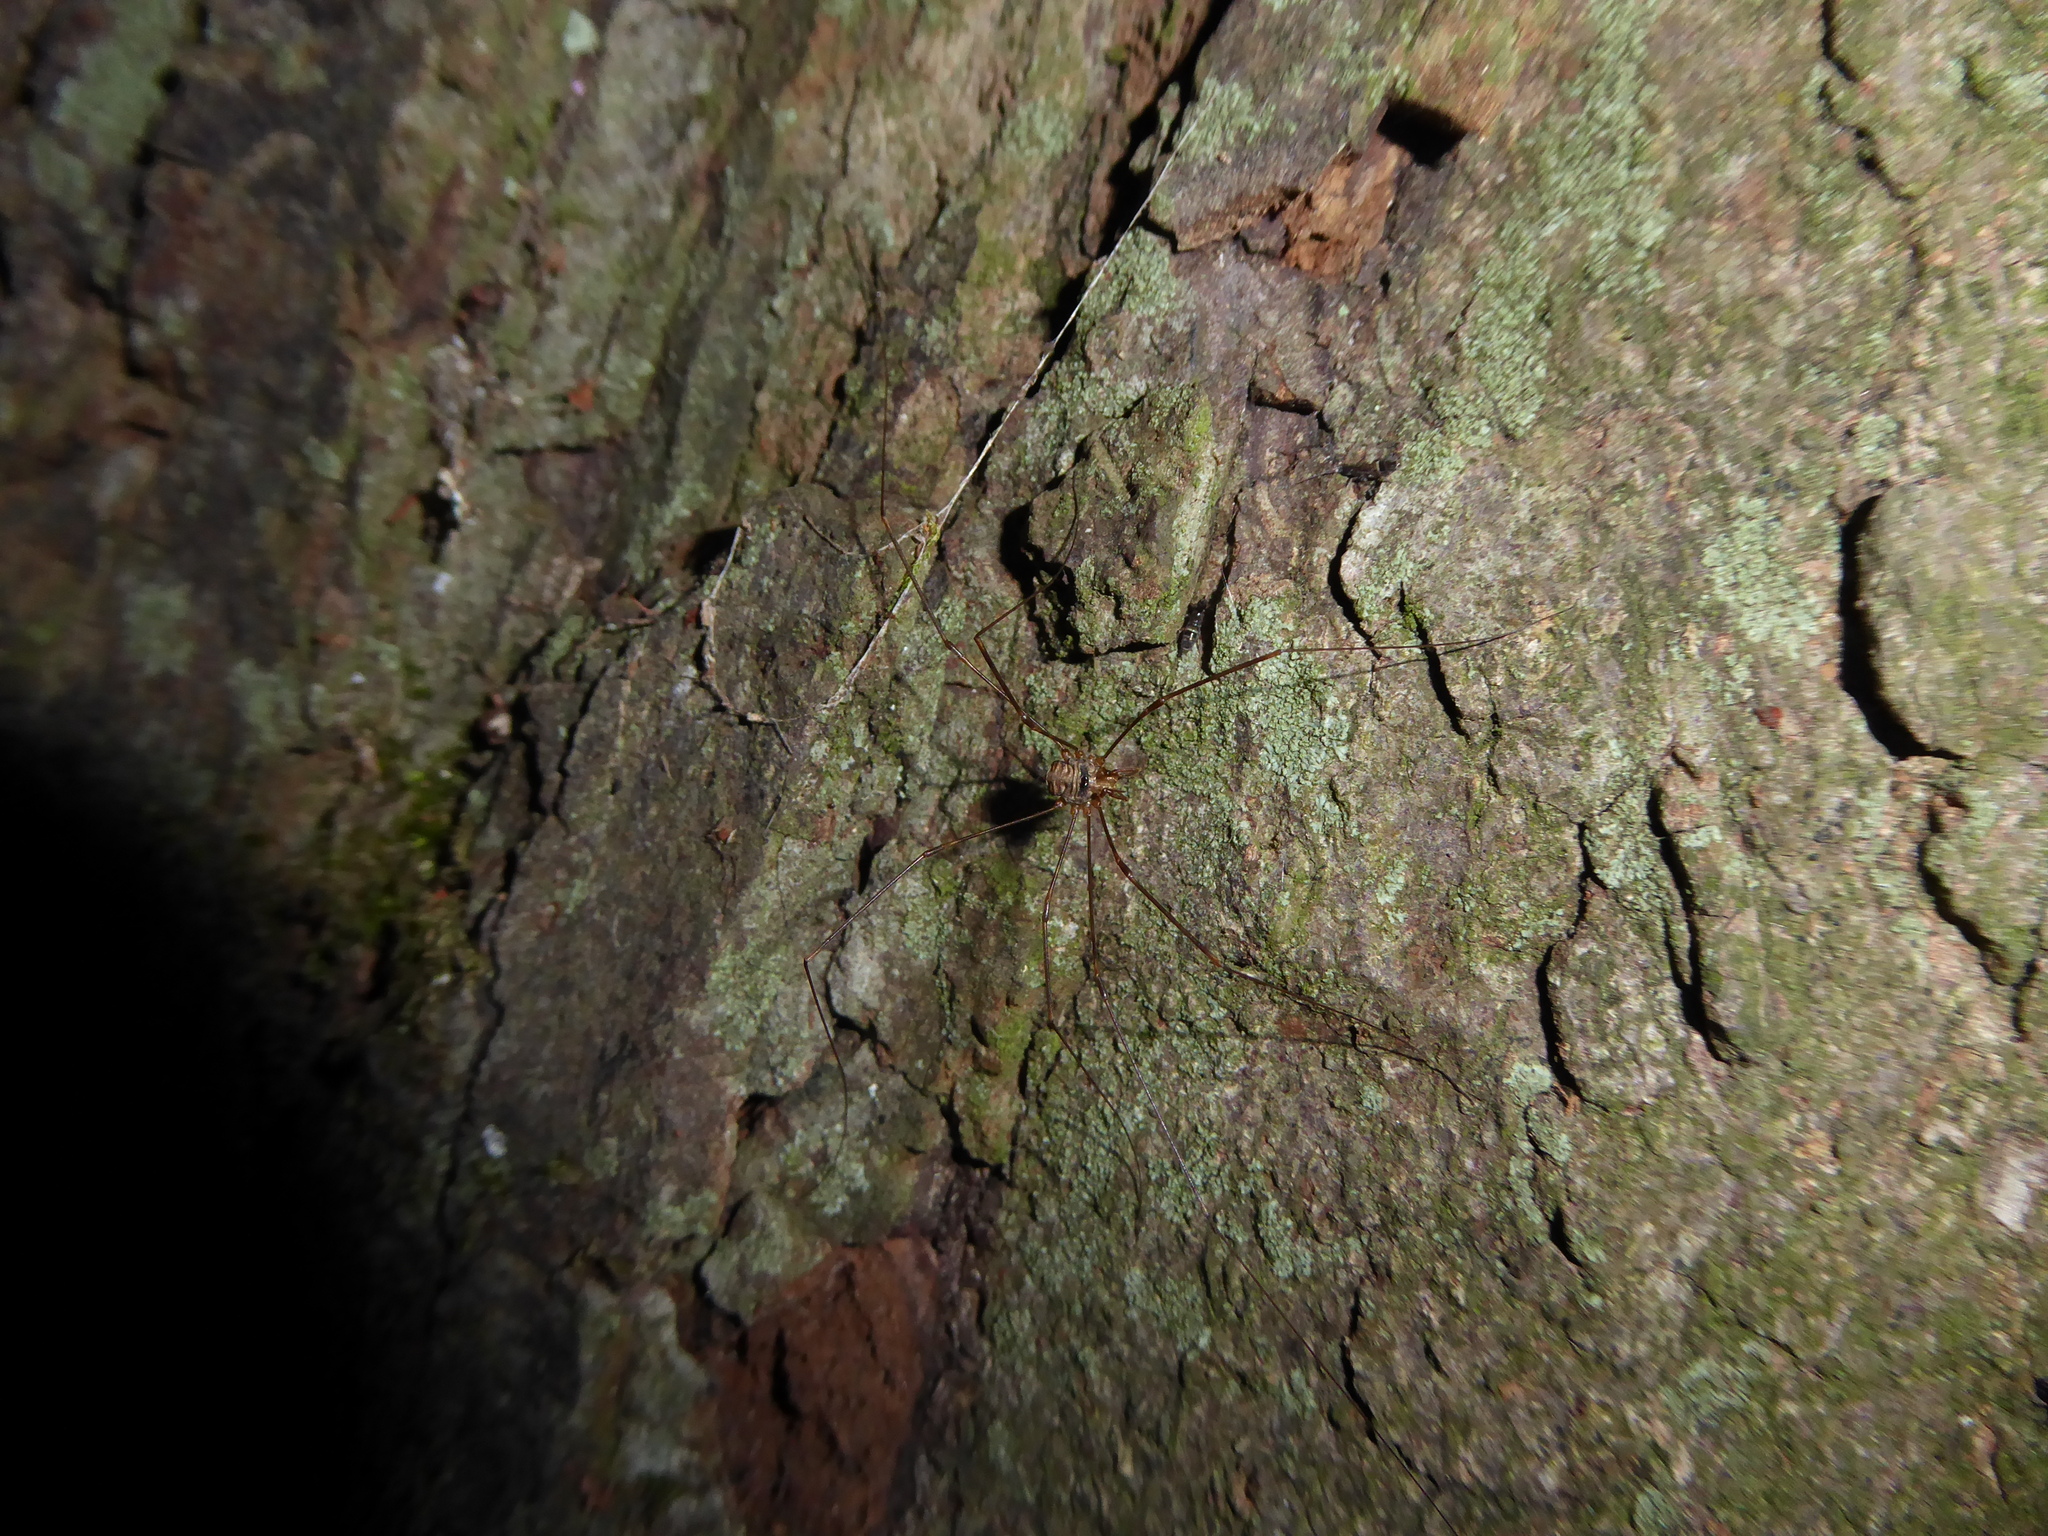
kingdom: Animalia
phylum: Arthropoda
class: Arachnida
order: Opiliones
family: Phalangiidae
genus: Dicranopalpus
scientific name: Dicranopalpus
